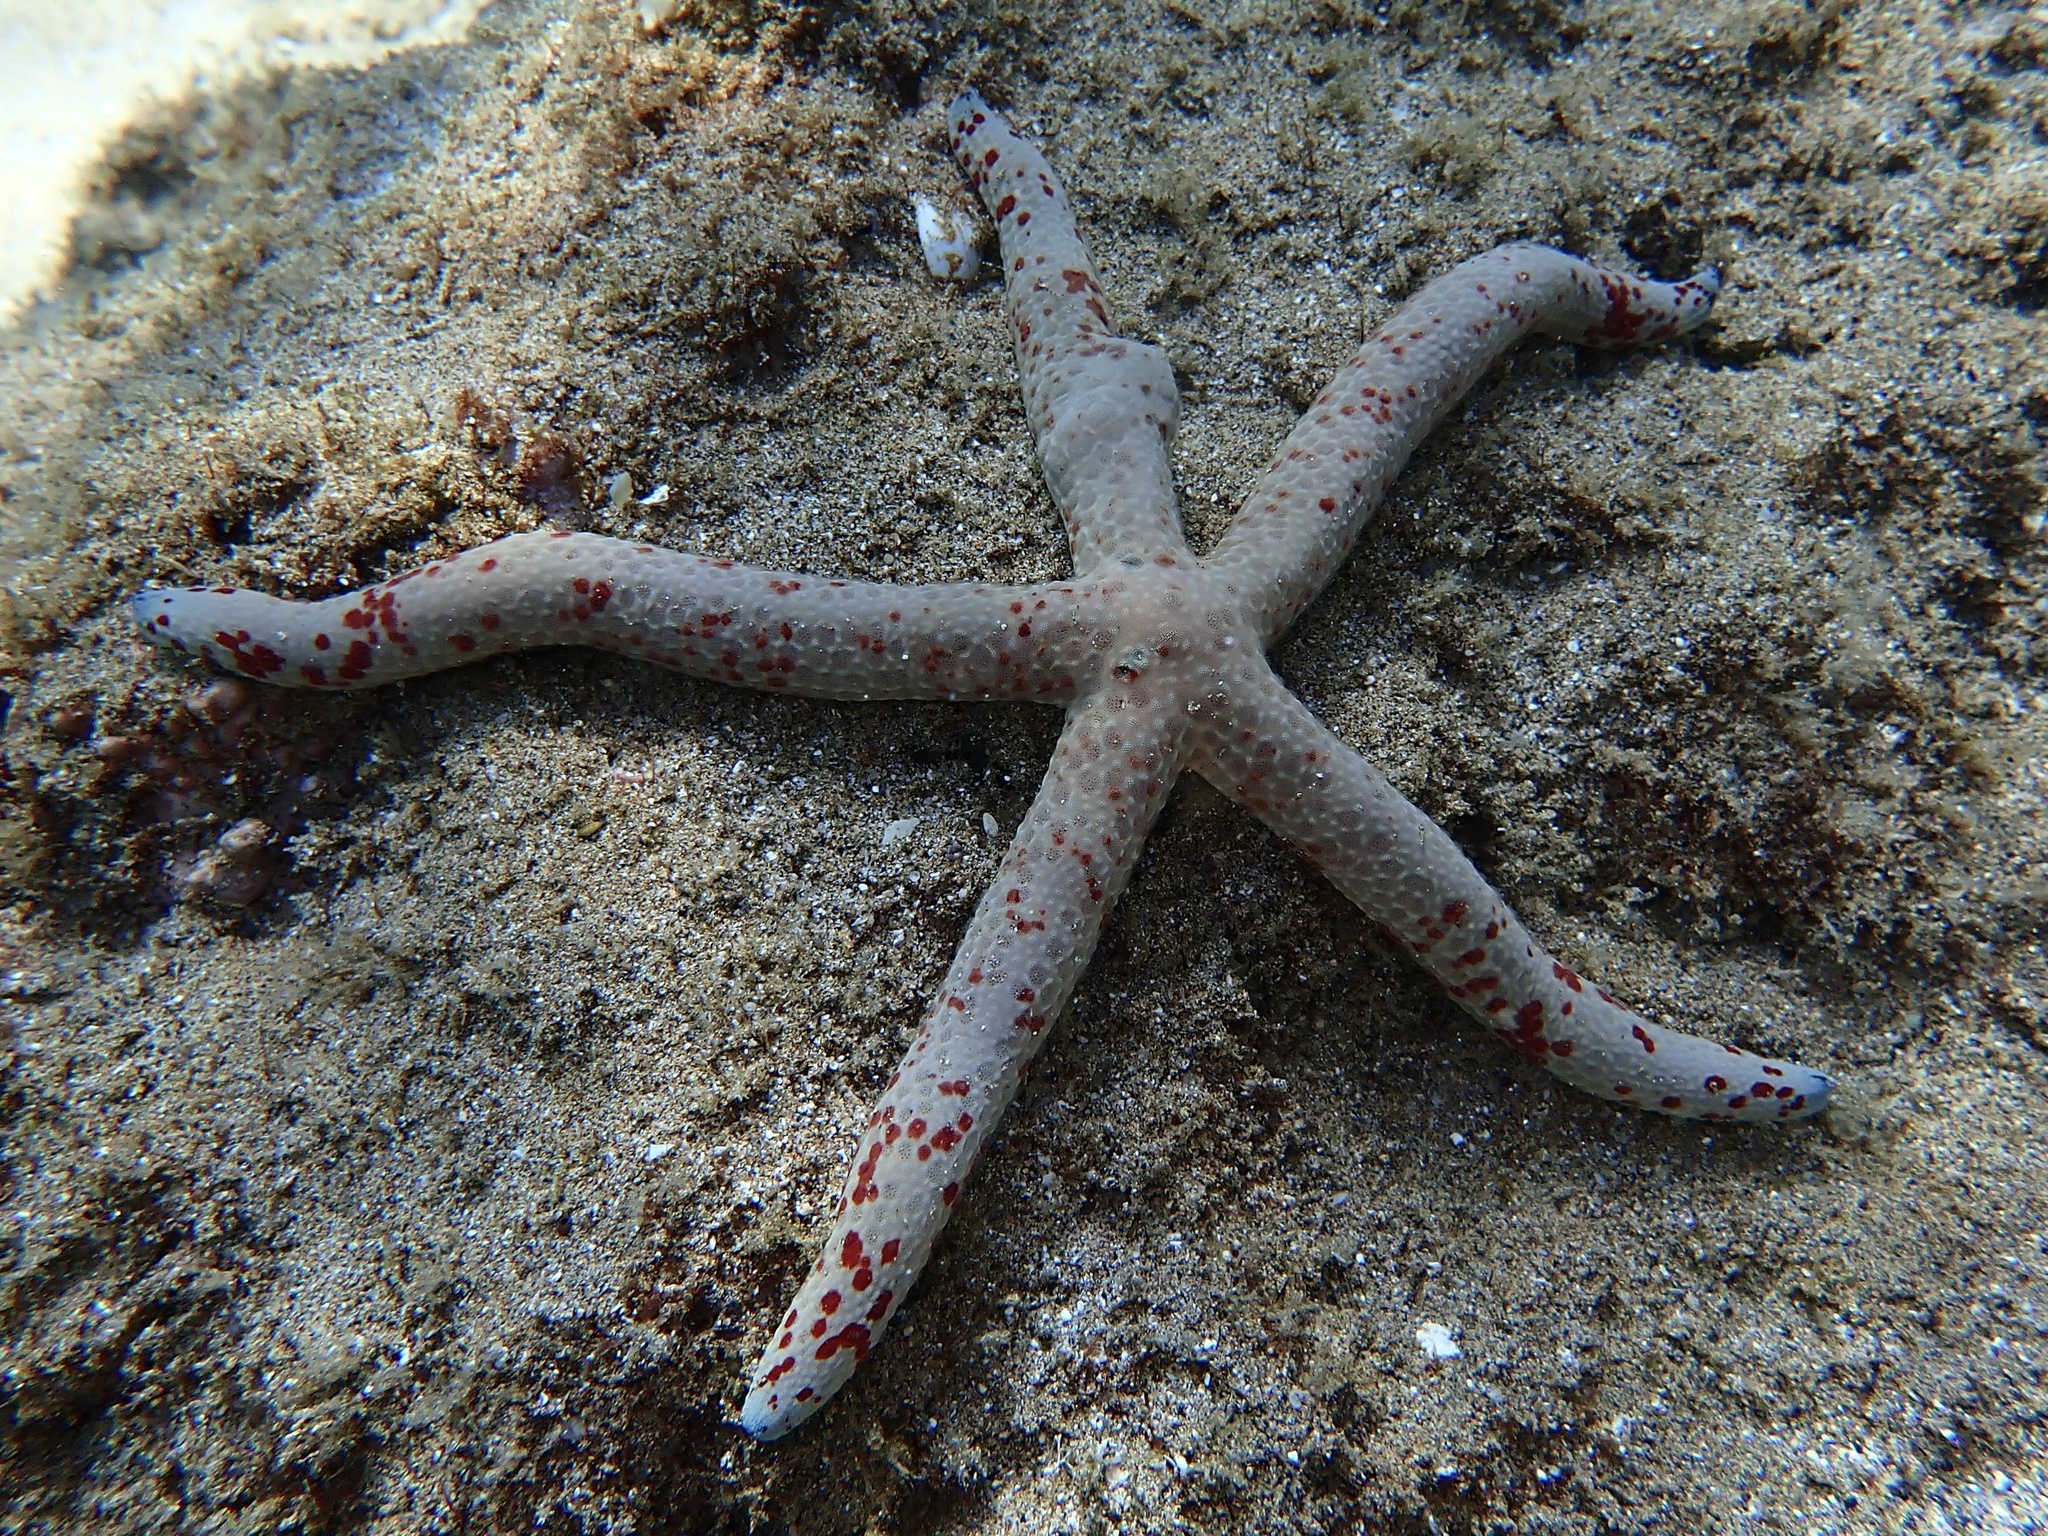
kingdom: Animalia
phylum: Echinodermata
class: Asteroidea
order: Valvatida
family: Ophidiasteridae
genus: Linckia
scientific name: Linckia multifora
